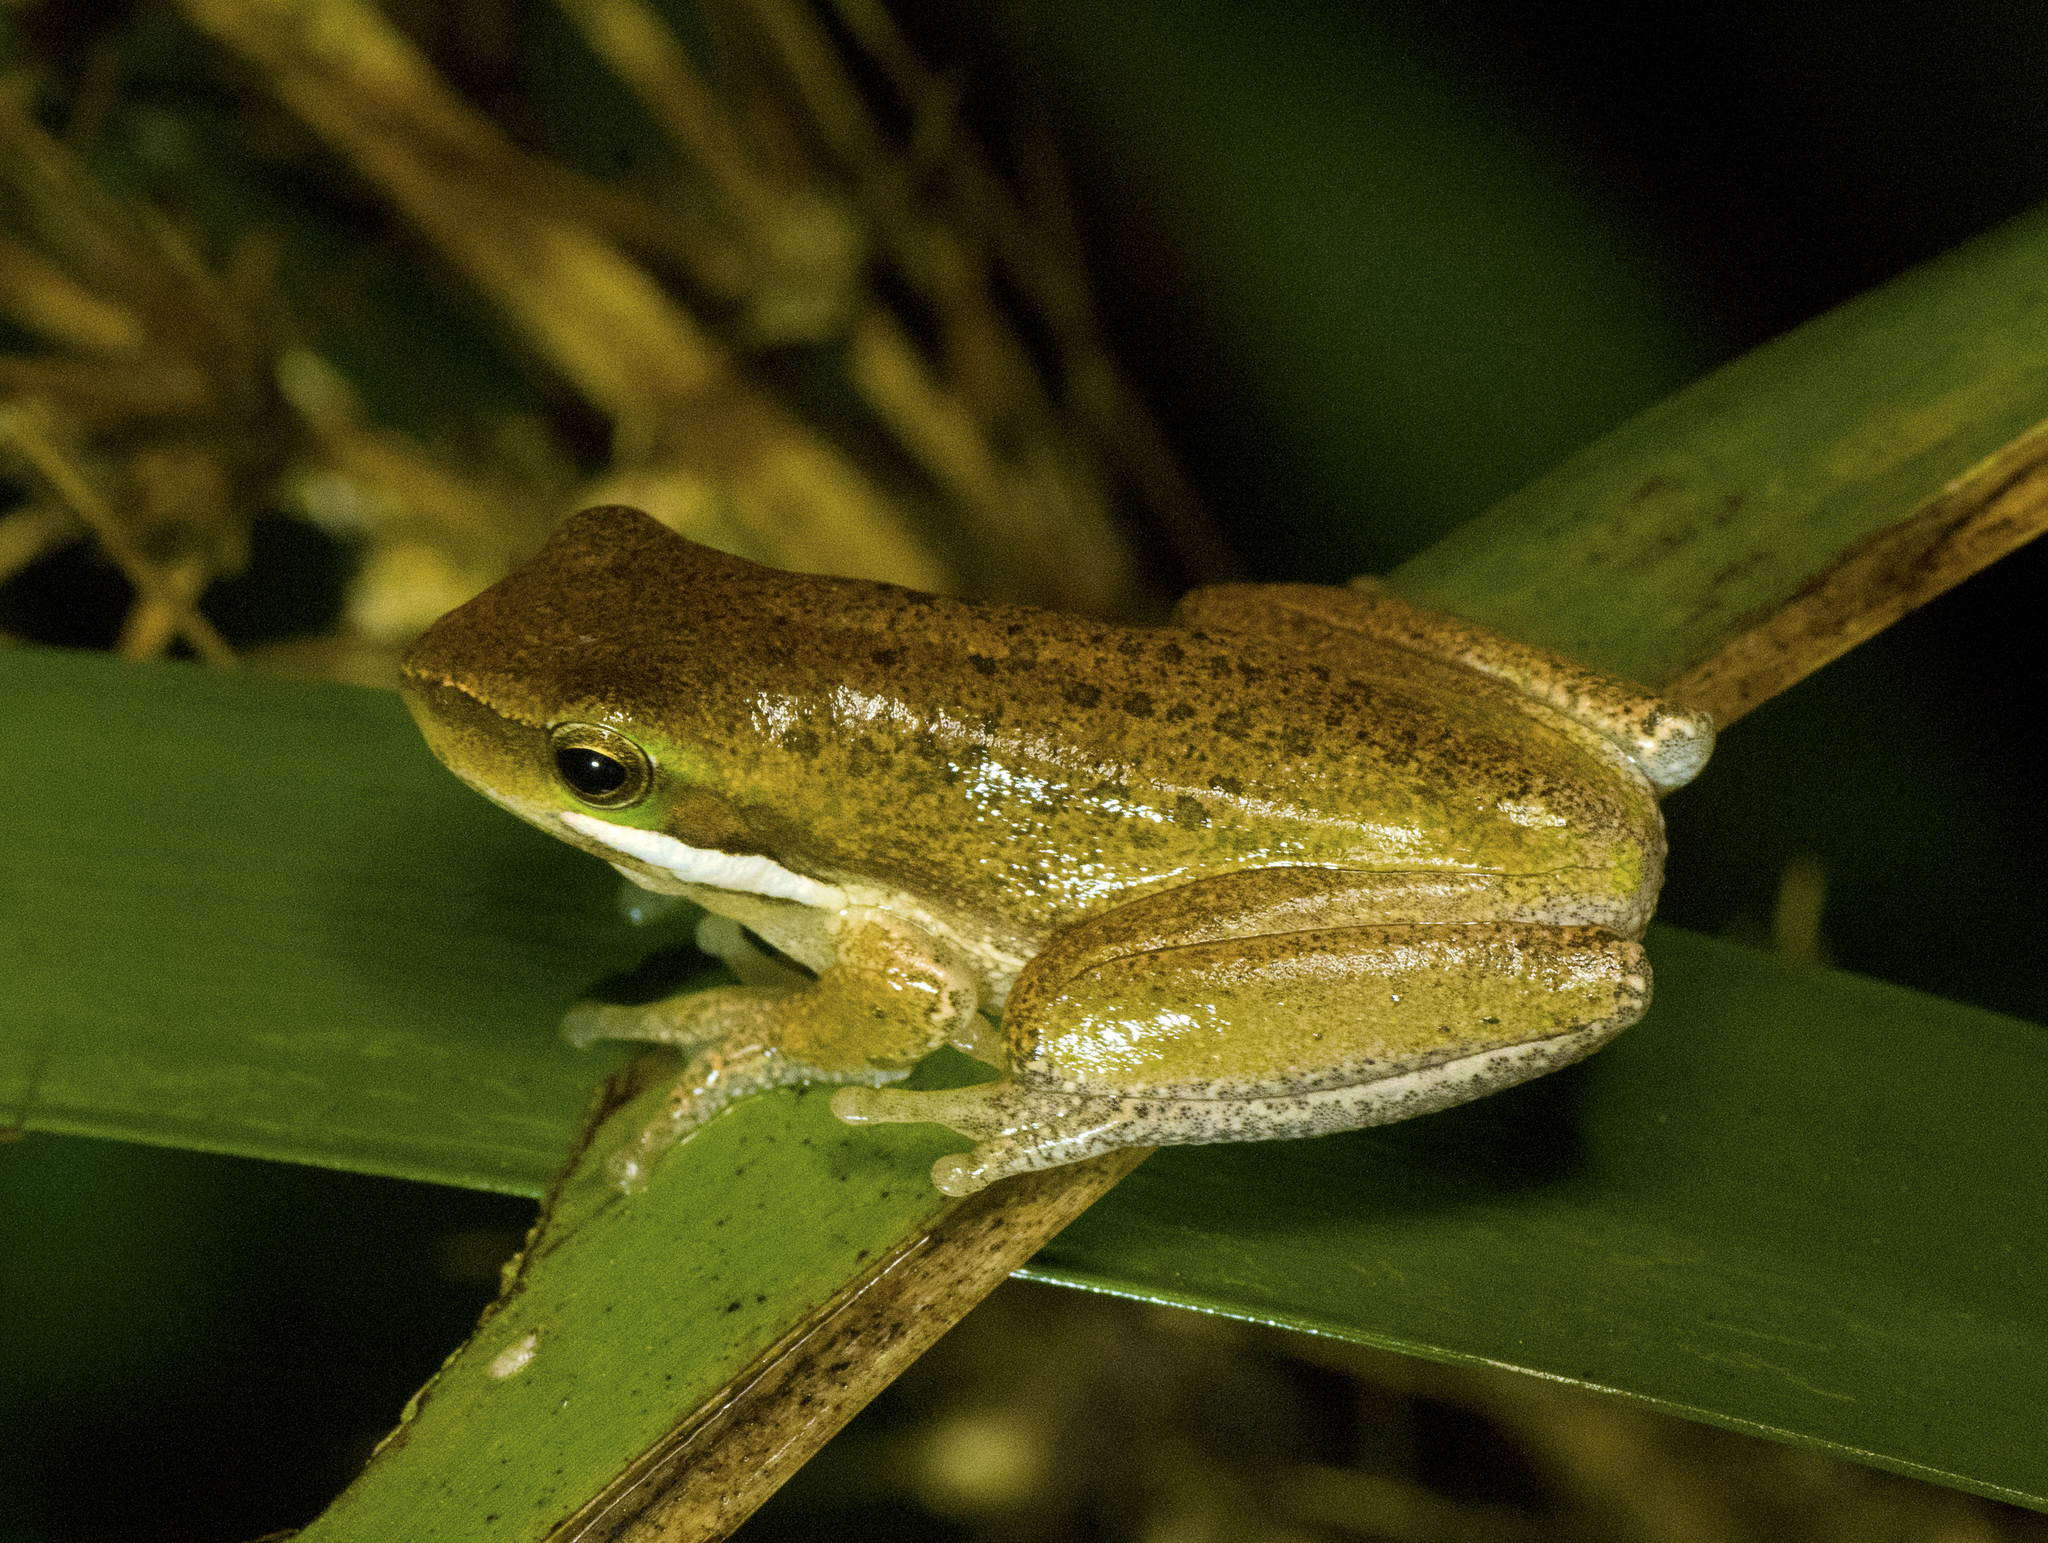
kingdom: Animalia
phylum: Chordata
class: Amphibia
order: Anura
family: Pelodryadidae
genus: Litoria
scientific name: Litoria fallax
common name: Eastern dwarf treefrog
